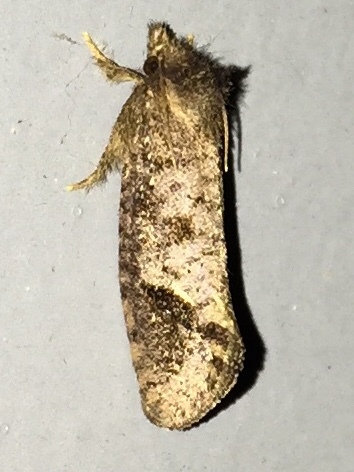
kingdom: Animalia
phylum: Arthropoda
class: Insecta
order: Lepidoptera
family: Tineidae
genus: Acrolophus
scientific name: Acrolophus texanella
